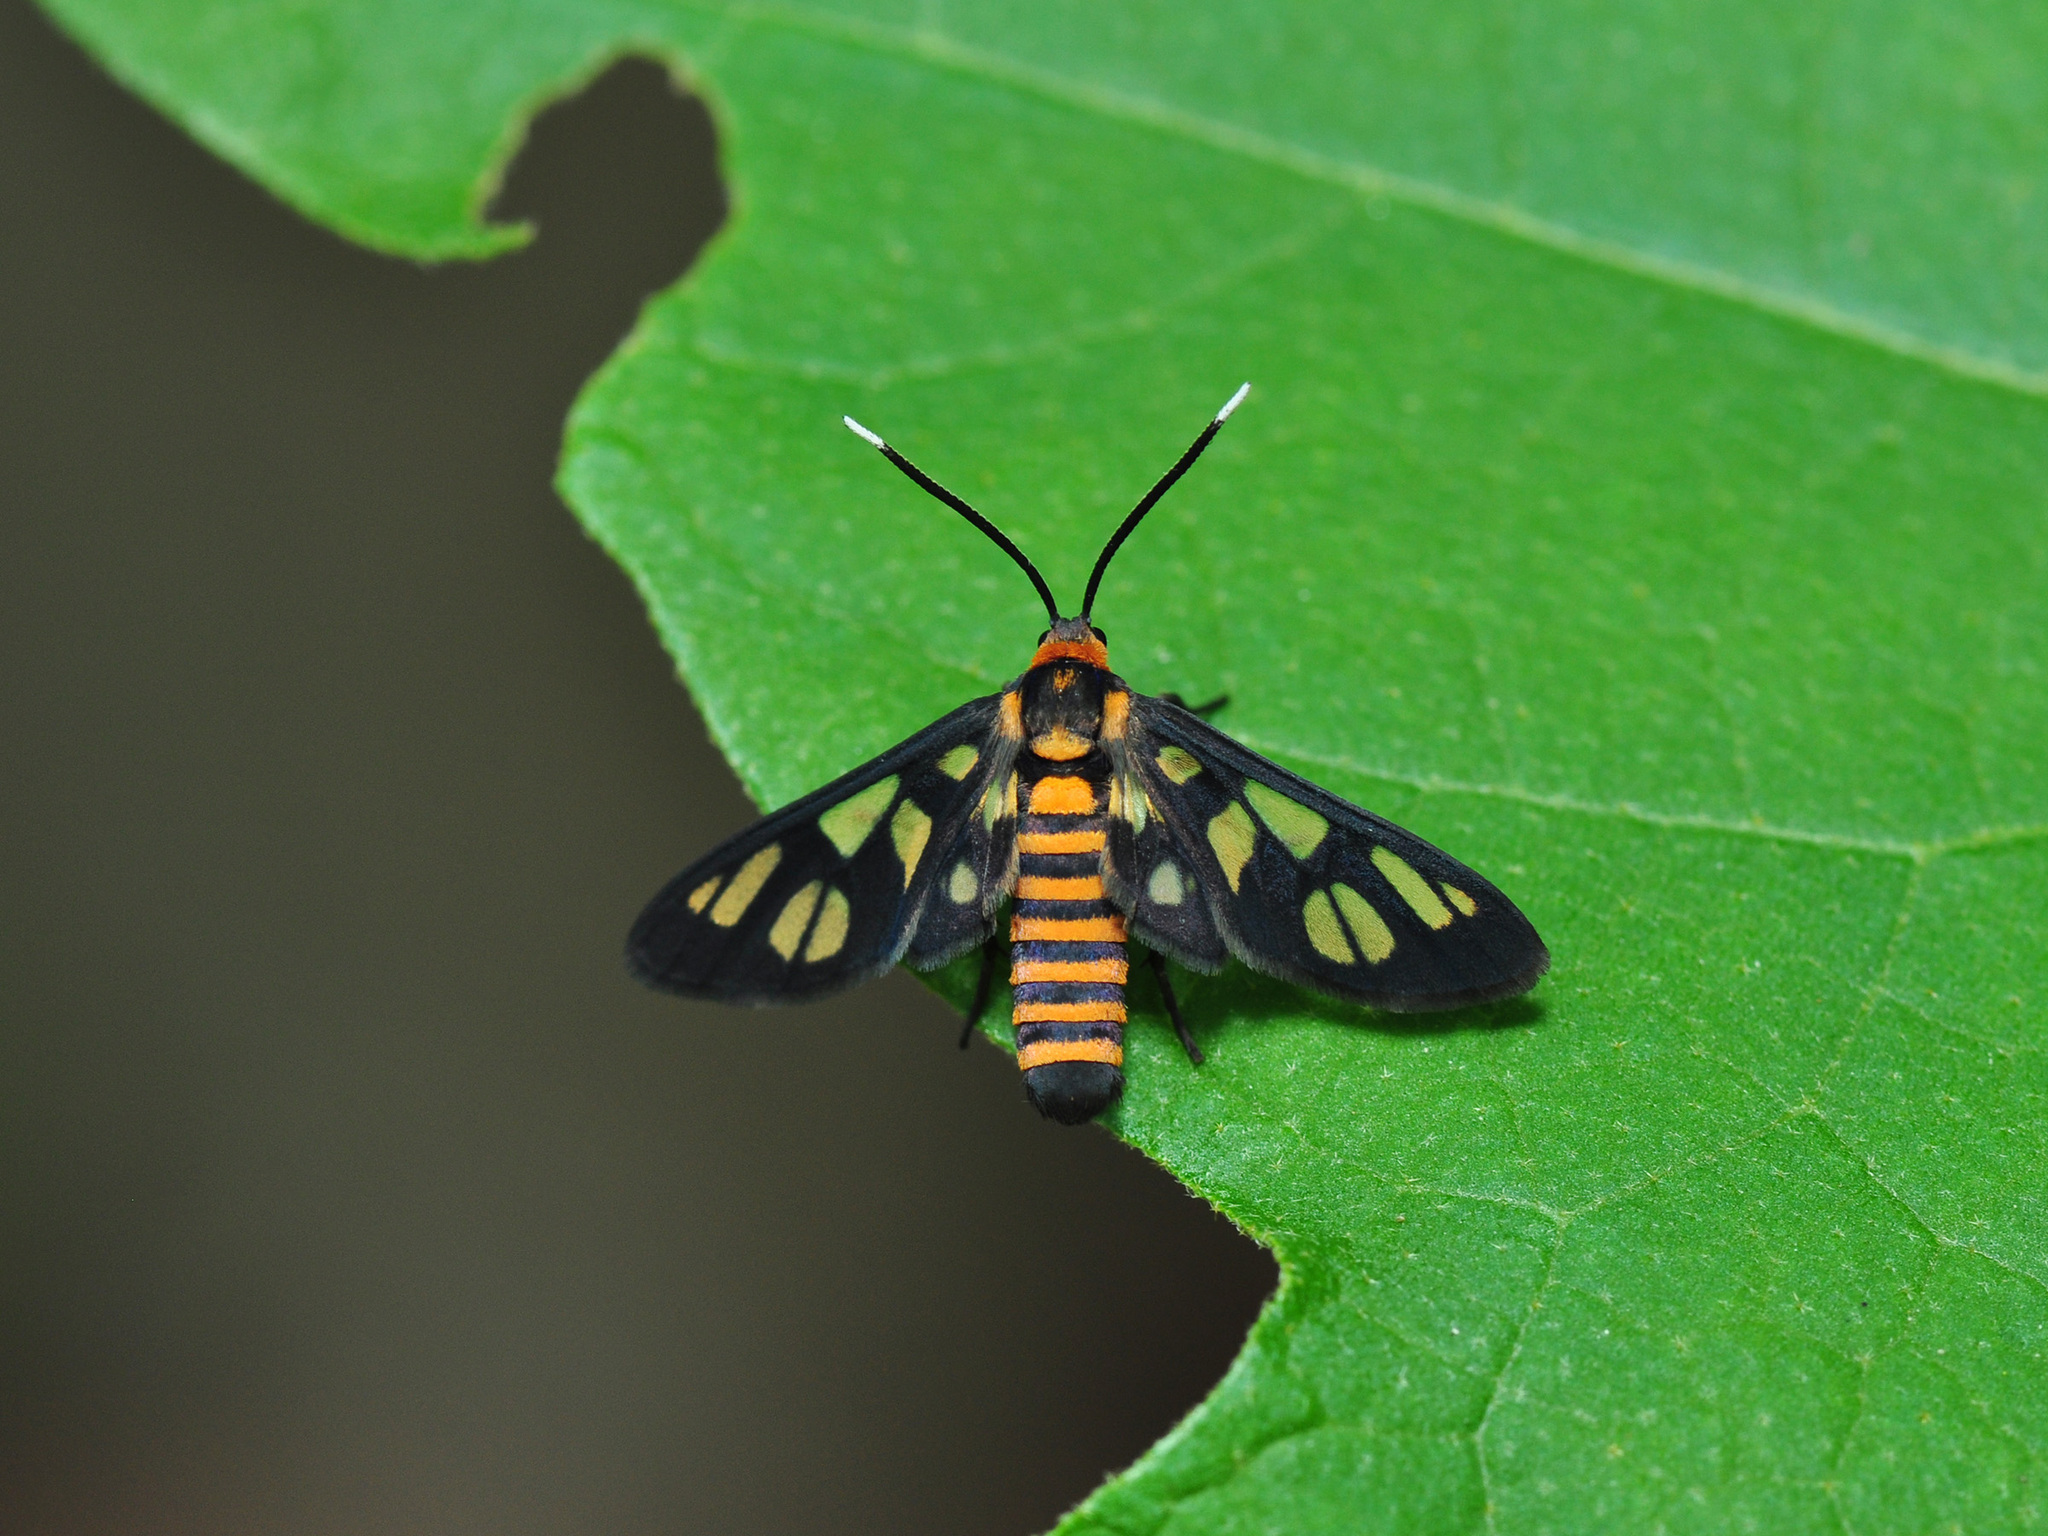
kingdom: Animalia
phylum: Arthropoda
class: Insecta
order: Lepidoptera
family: Erebidae
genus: Amata
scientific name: Amata huebneri
